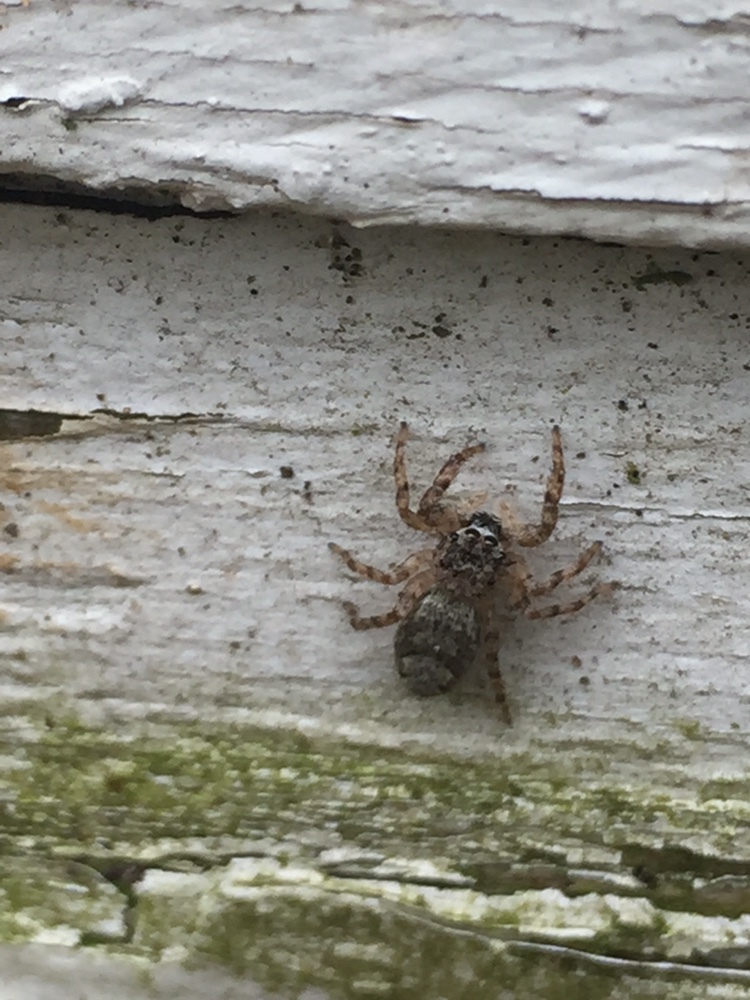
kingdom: Animalia
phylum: Arthropoda
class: Arachnida
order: Araneae
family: Salticidae
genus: Platycryptus
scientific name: Platycryptus undatus
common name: Tan jumping spider
